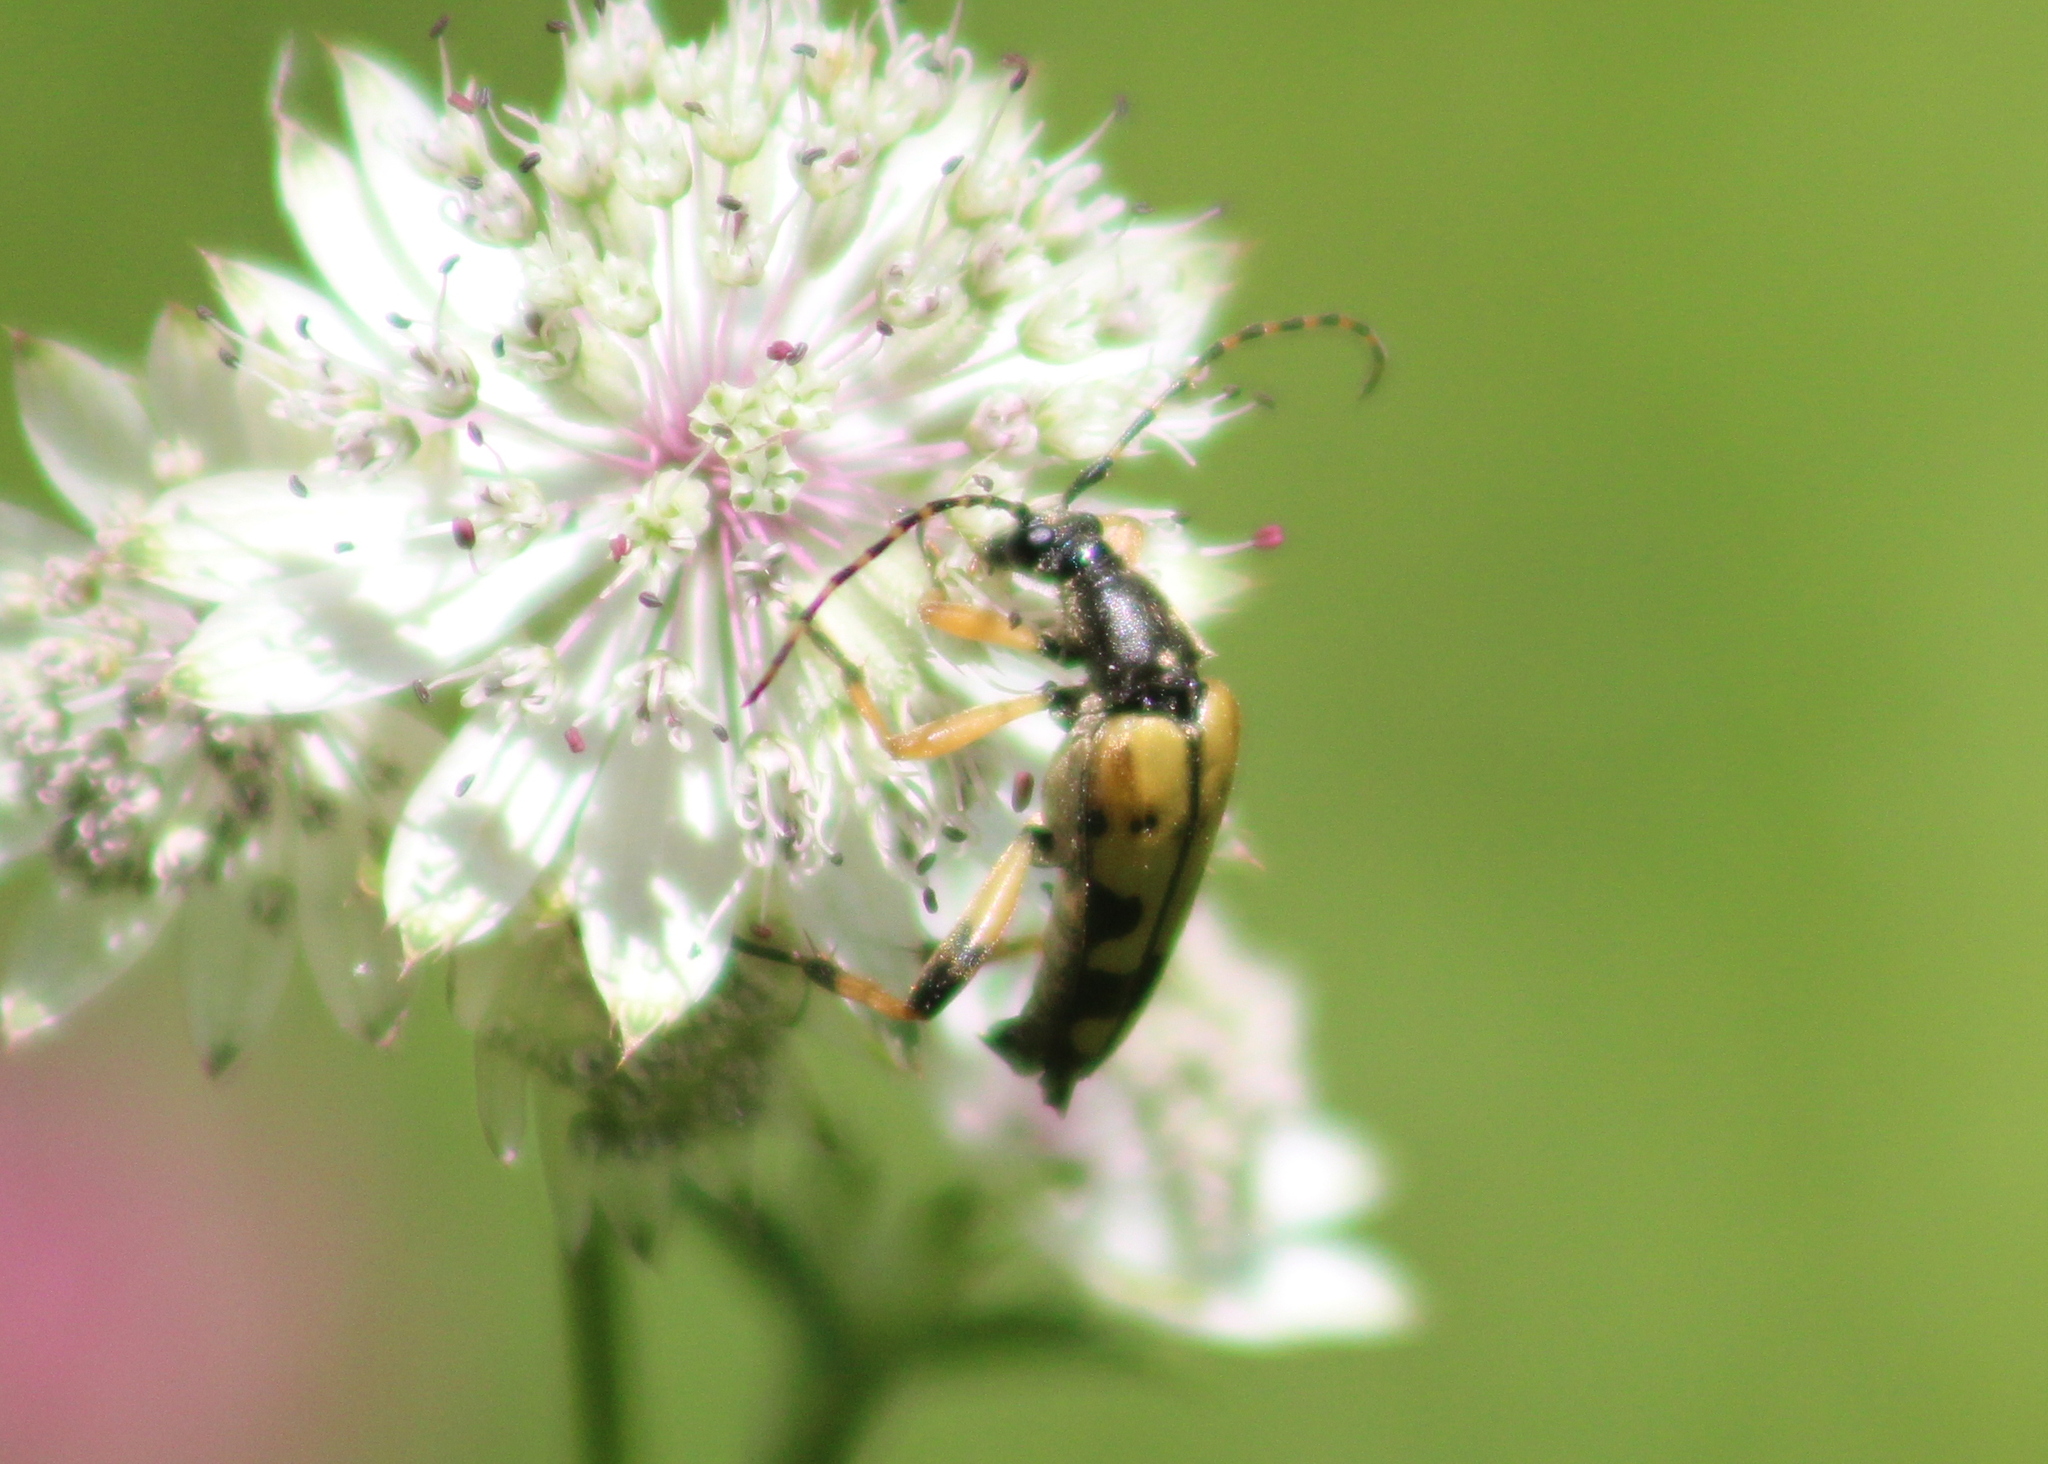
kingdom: Animalia
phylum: Arthropoda
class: Insecta
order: Coleoptera
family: Cerambycidae
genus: Rutpela
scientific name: Rutpela maculata
